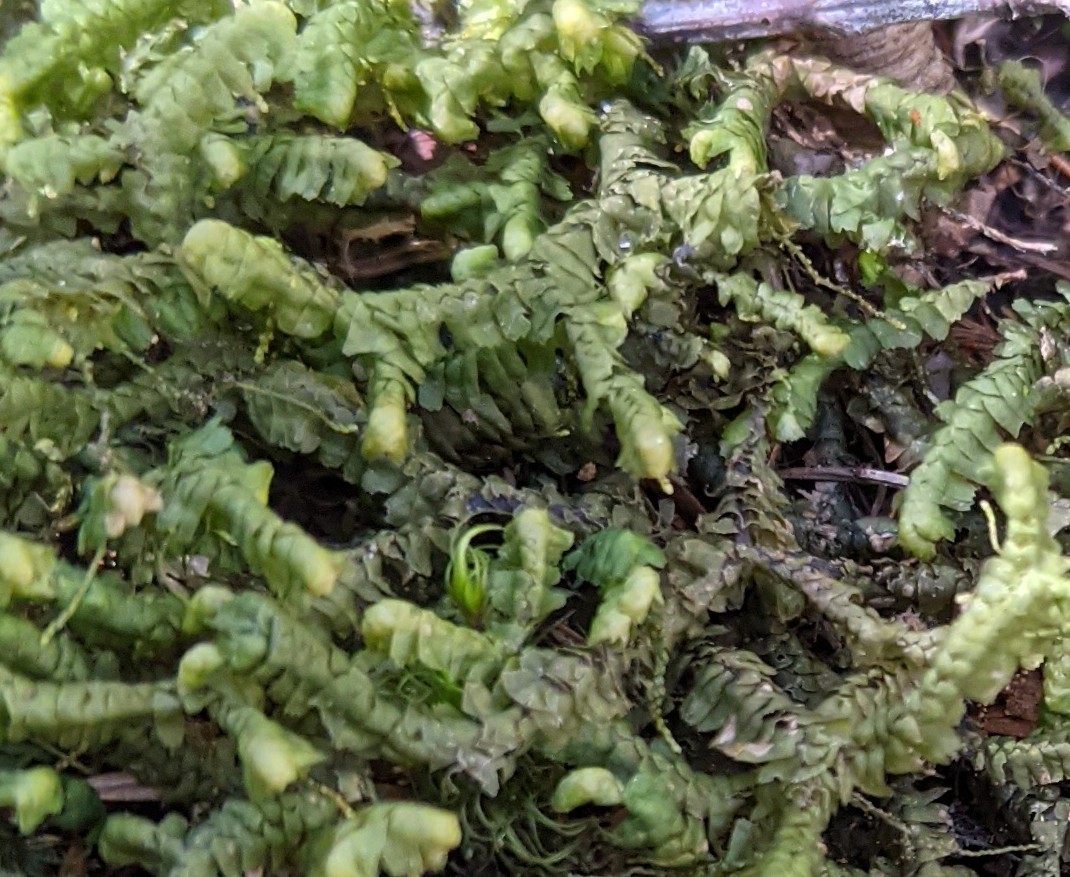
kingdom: Plantae
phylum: Marchantiophyta
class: Jungermanniopsida
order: Jungermanniales
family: Lepidoziaceae
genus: Bazzania
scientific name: Bazzania trilobata
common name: Three-lobed whipwort
